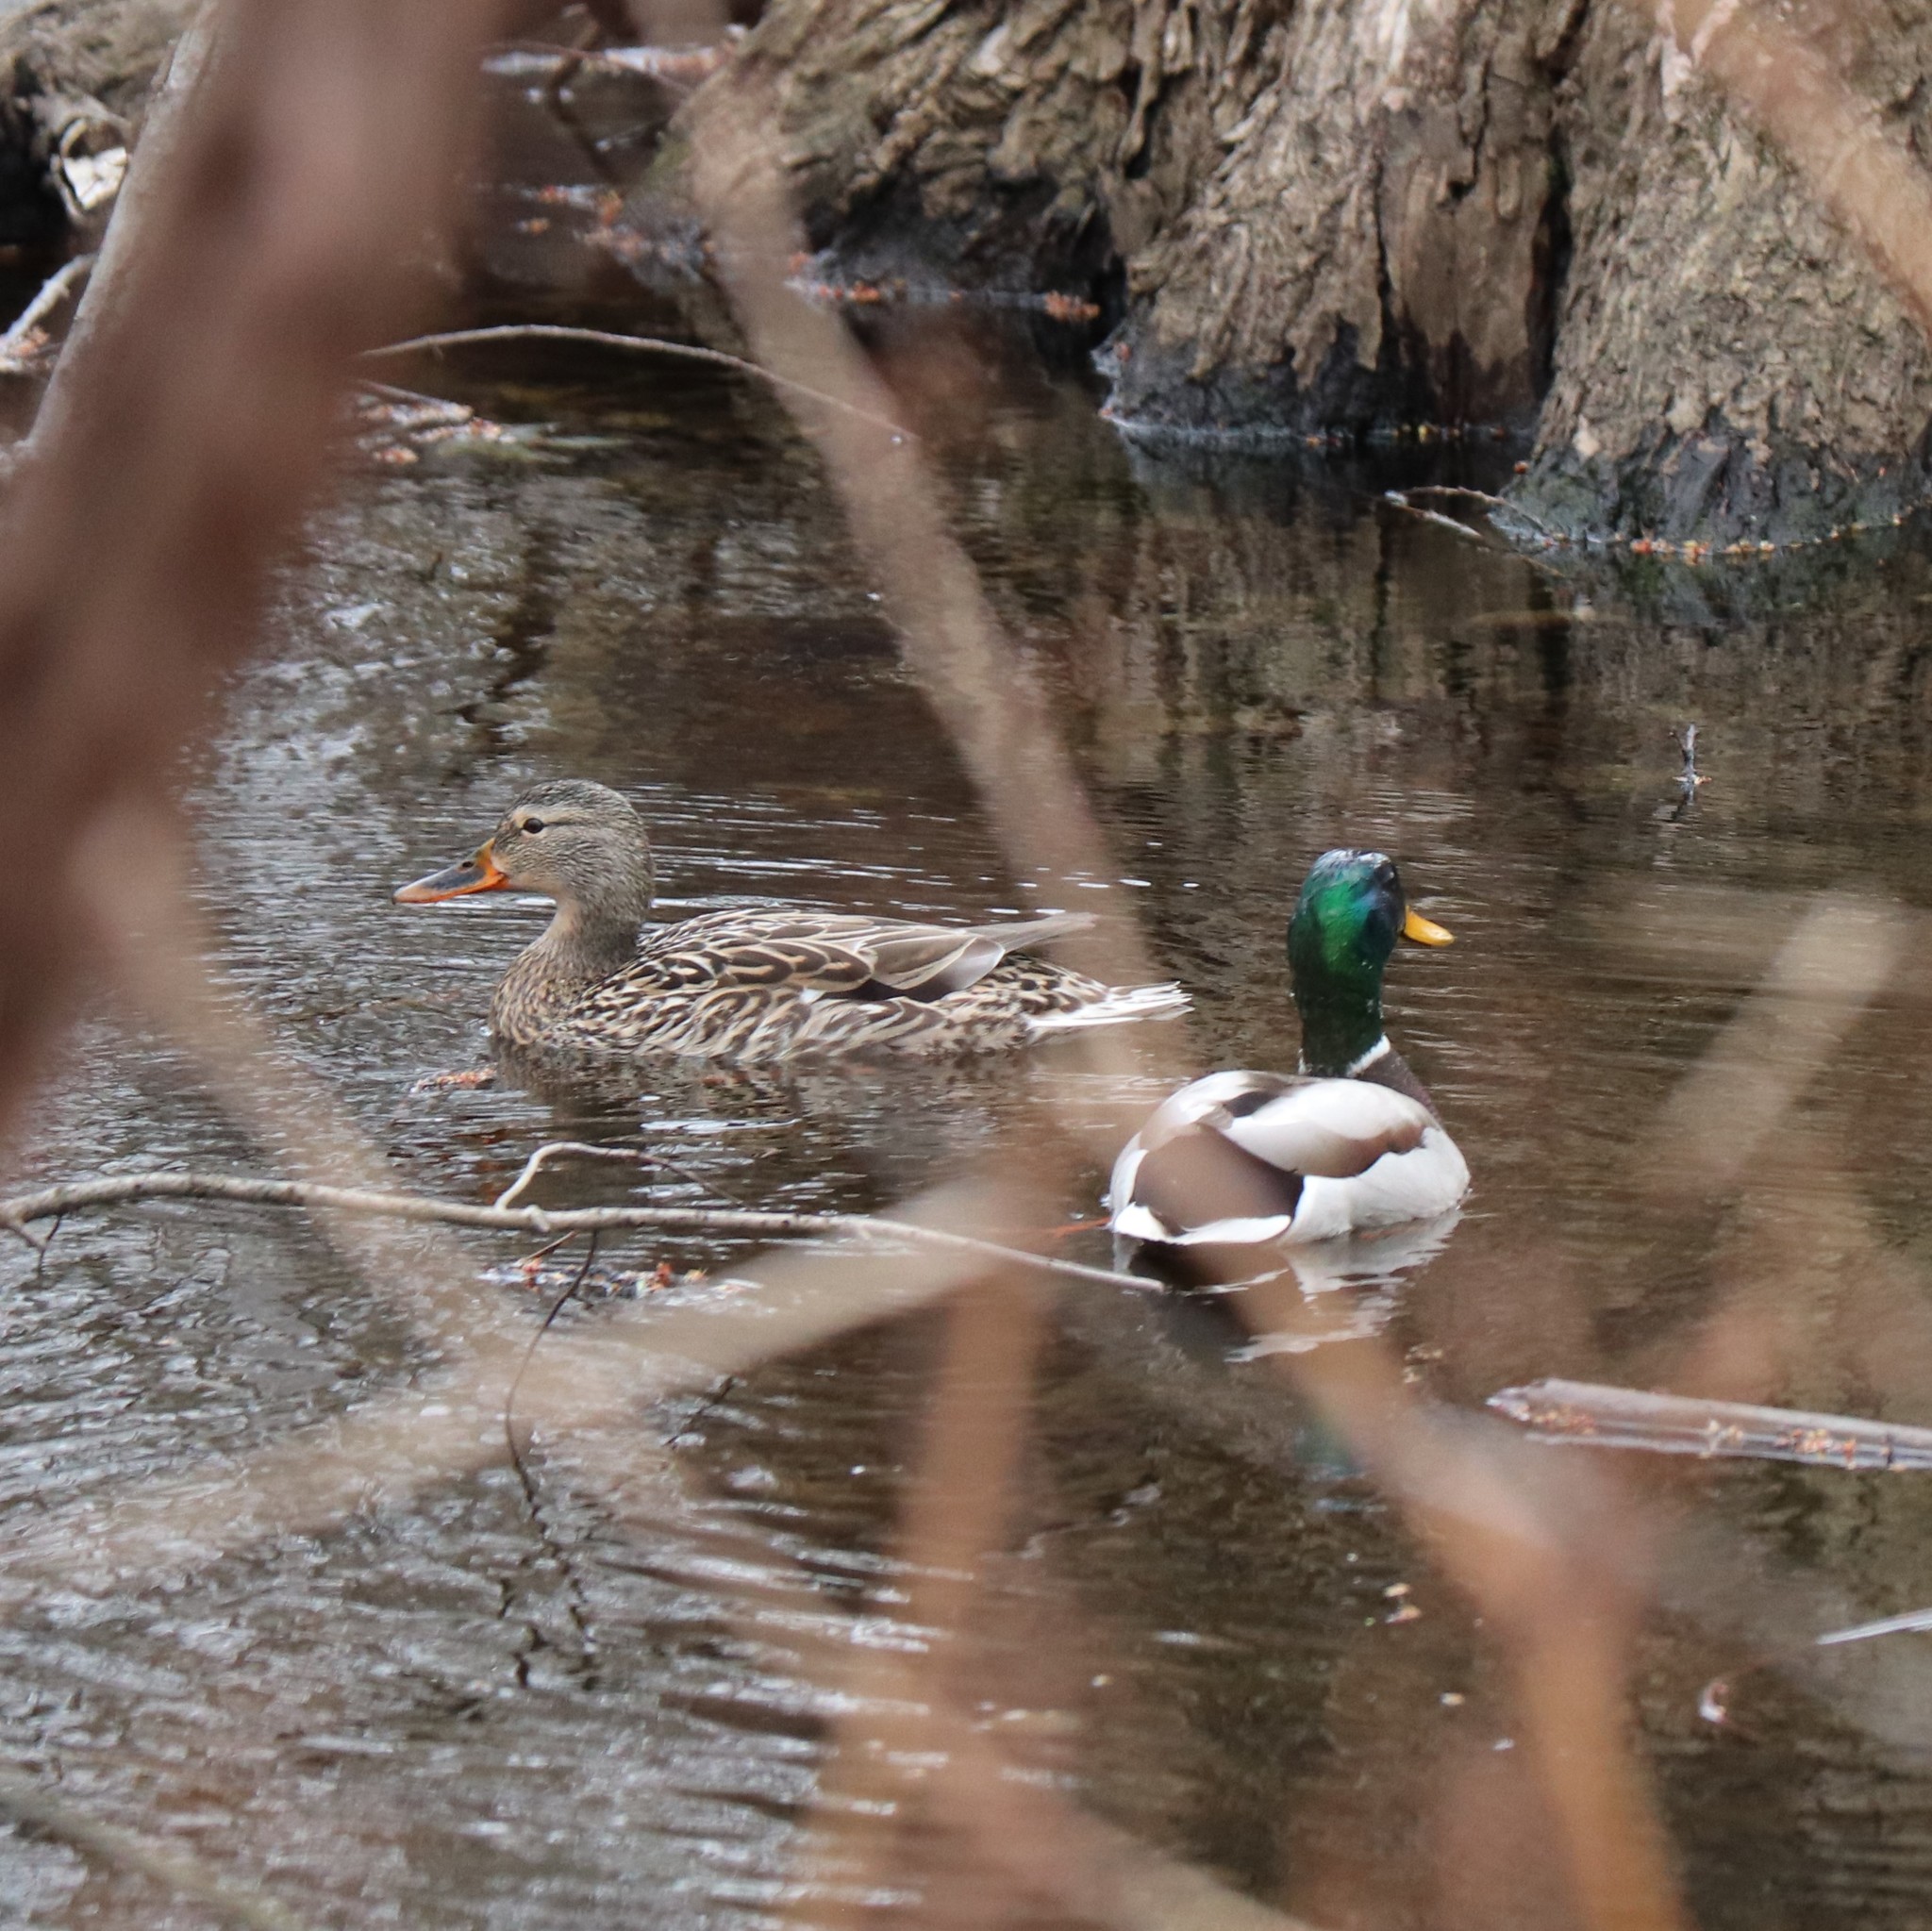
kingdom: Animalia
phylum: Chordata
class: Aves
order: Anseriformes
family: Anatidae
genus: Anas
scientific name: Anas platyrhynchos
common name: Mallard
